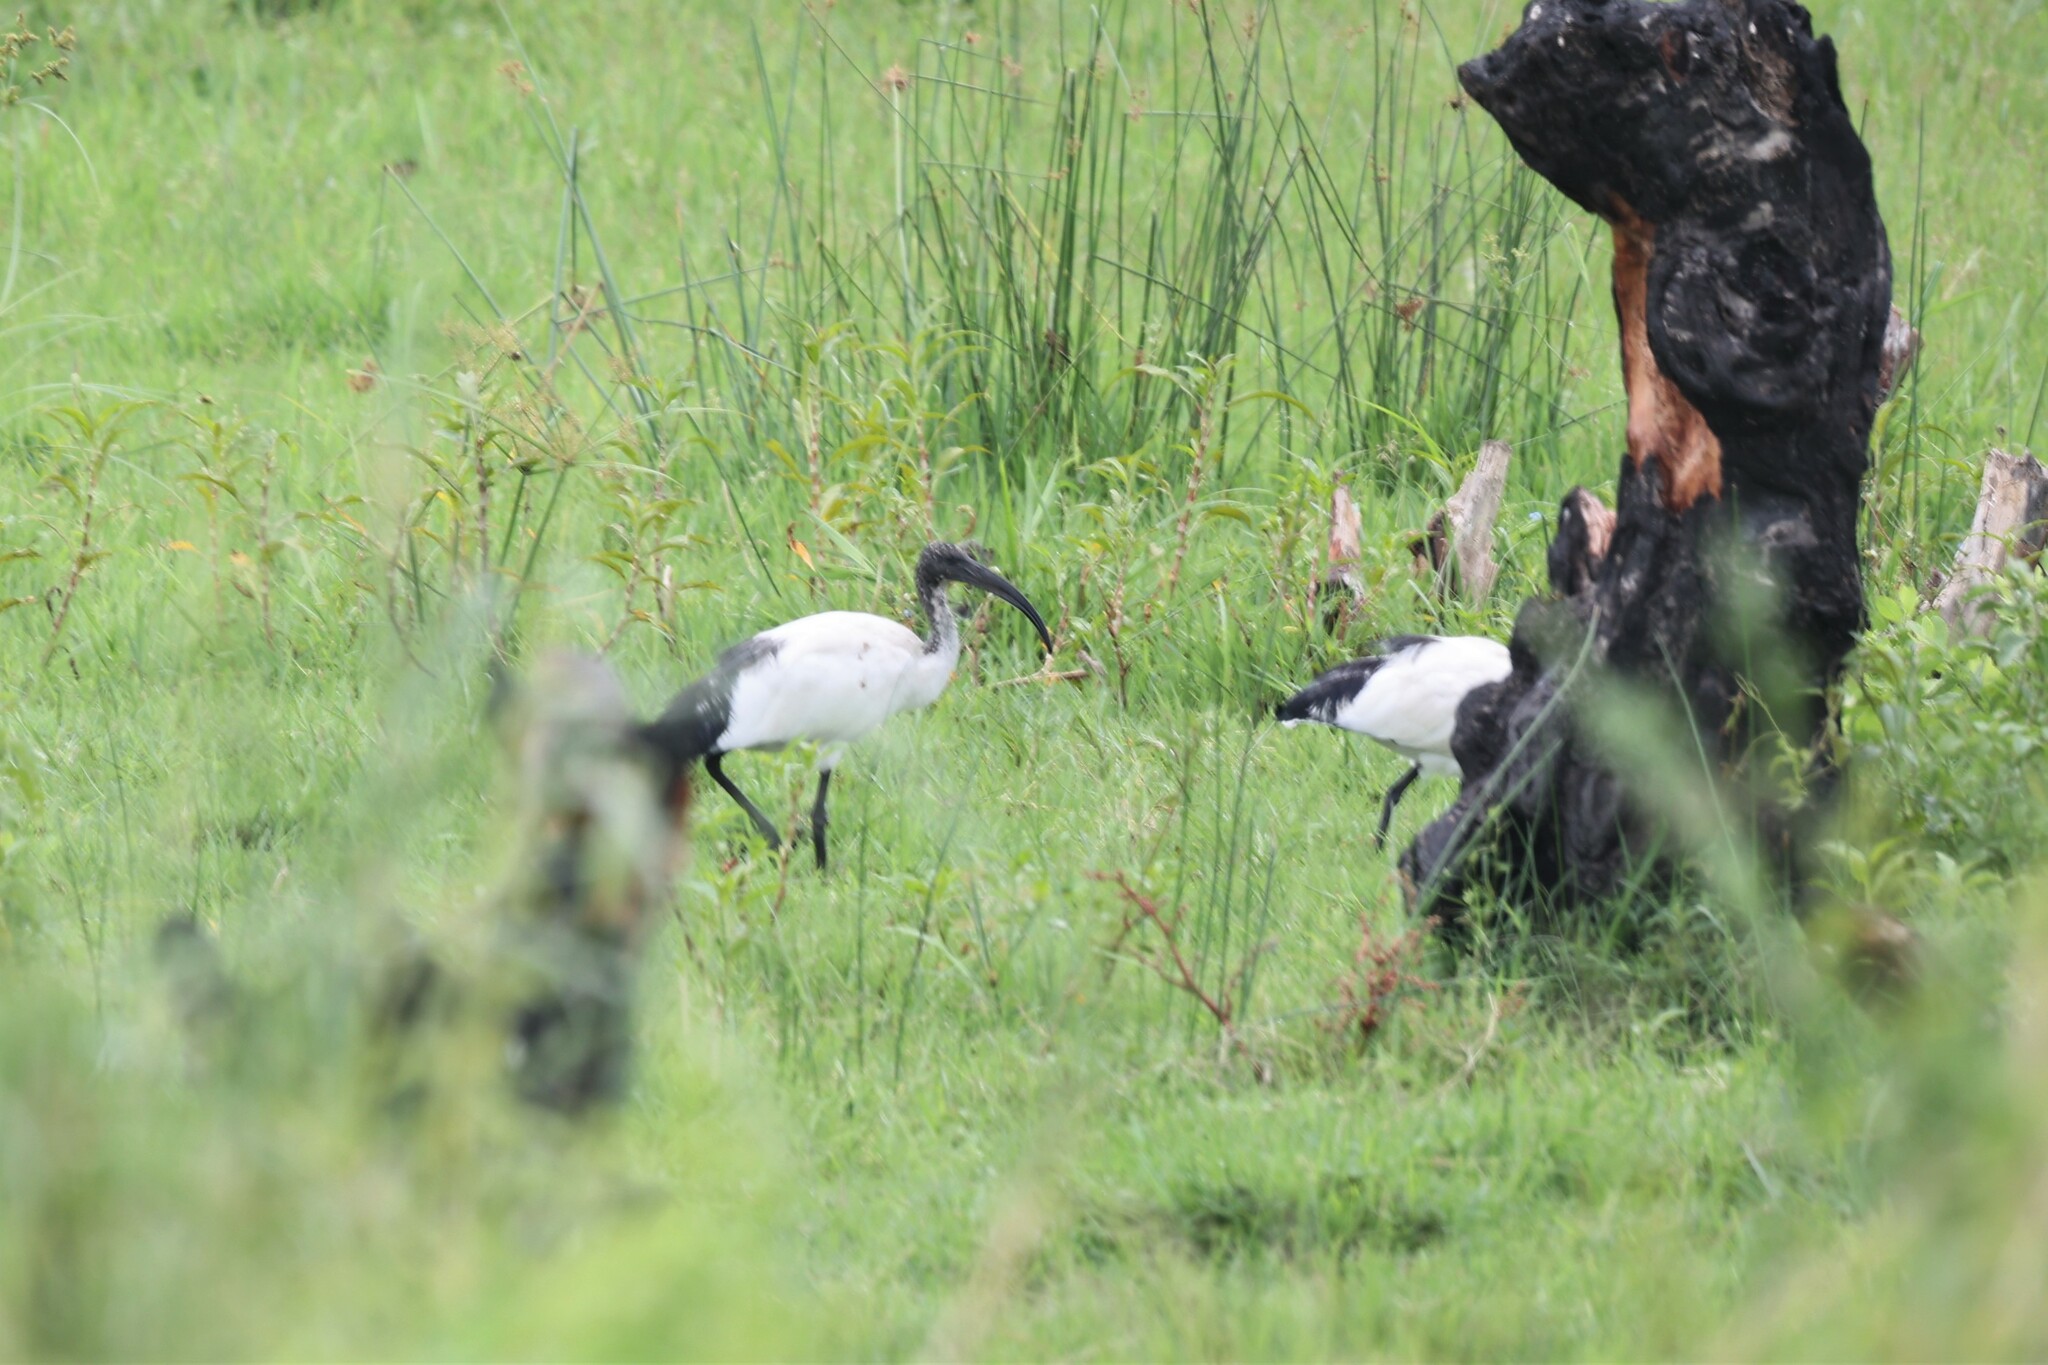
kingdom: Animalia
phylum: Chordata
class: Aves
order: Pelecaniformes
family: Threskiornithidae
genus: Threskiornis
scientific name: Threskiornis aethiopicus
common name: Sacred ibis
